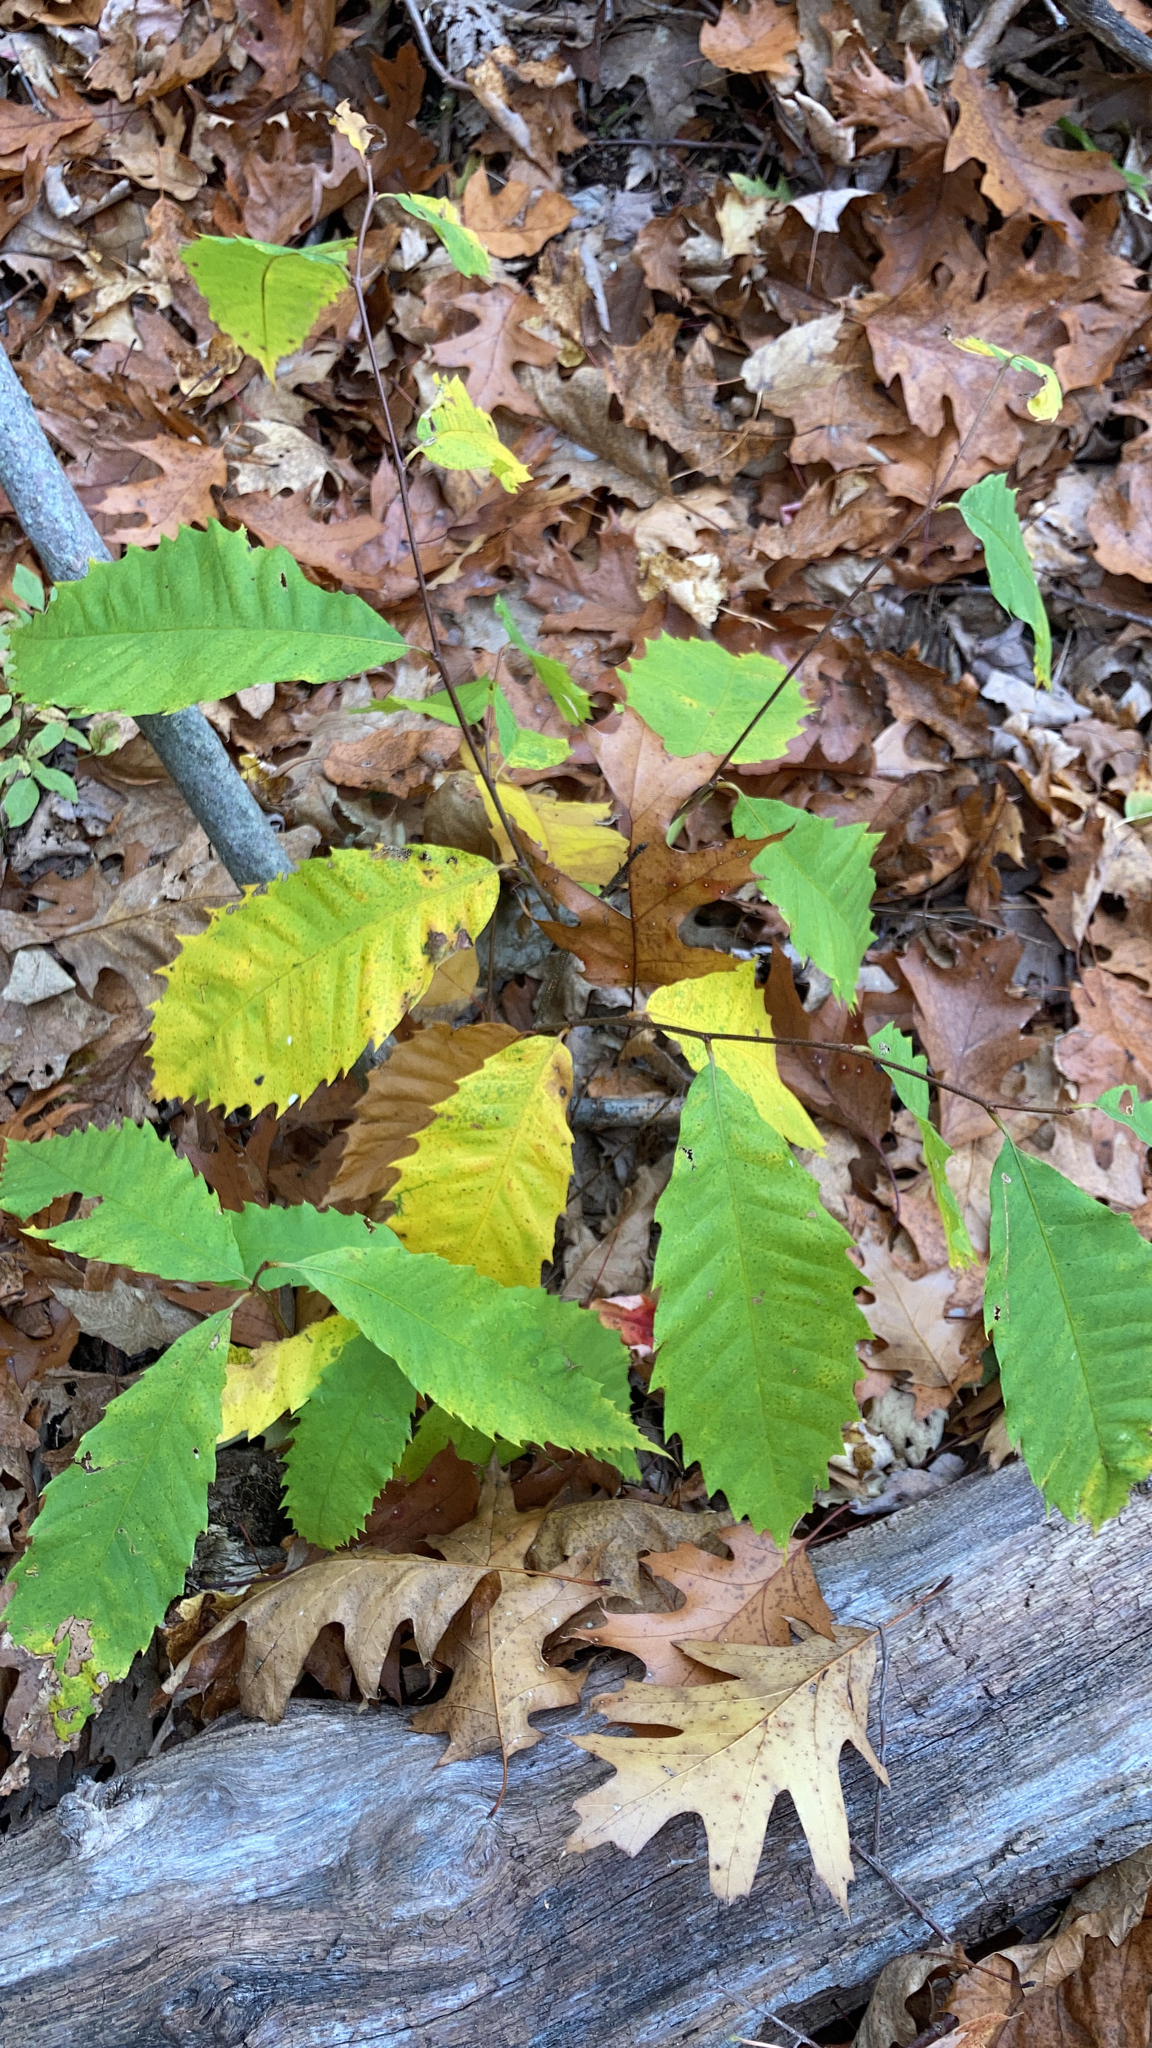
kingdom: Plantae
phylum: Tracheophyta
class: Magnoliopsida
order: Fagales
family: Fagaceae
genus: Castanea
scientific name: Castanea dentata
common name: American chestnut
